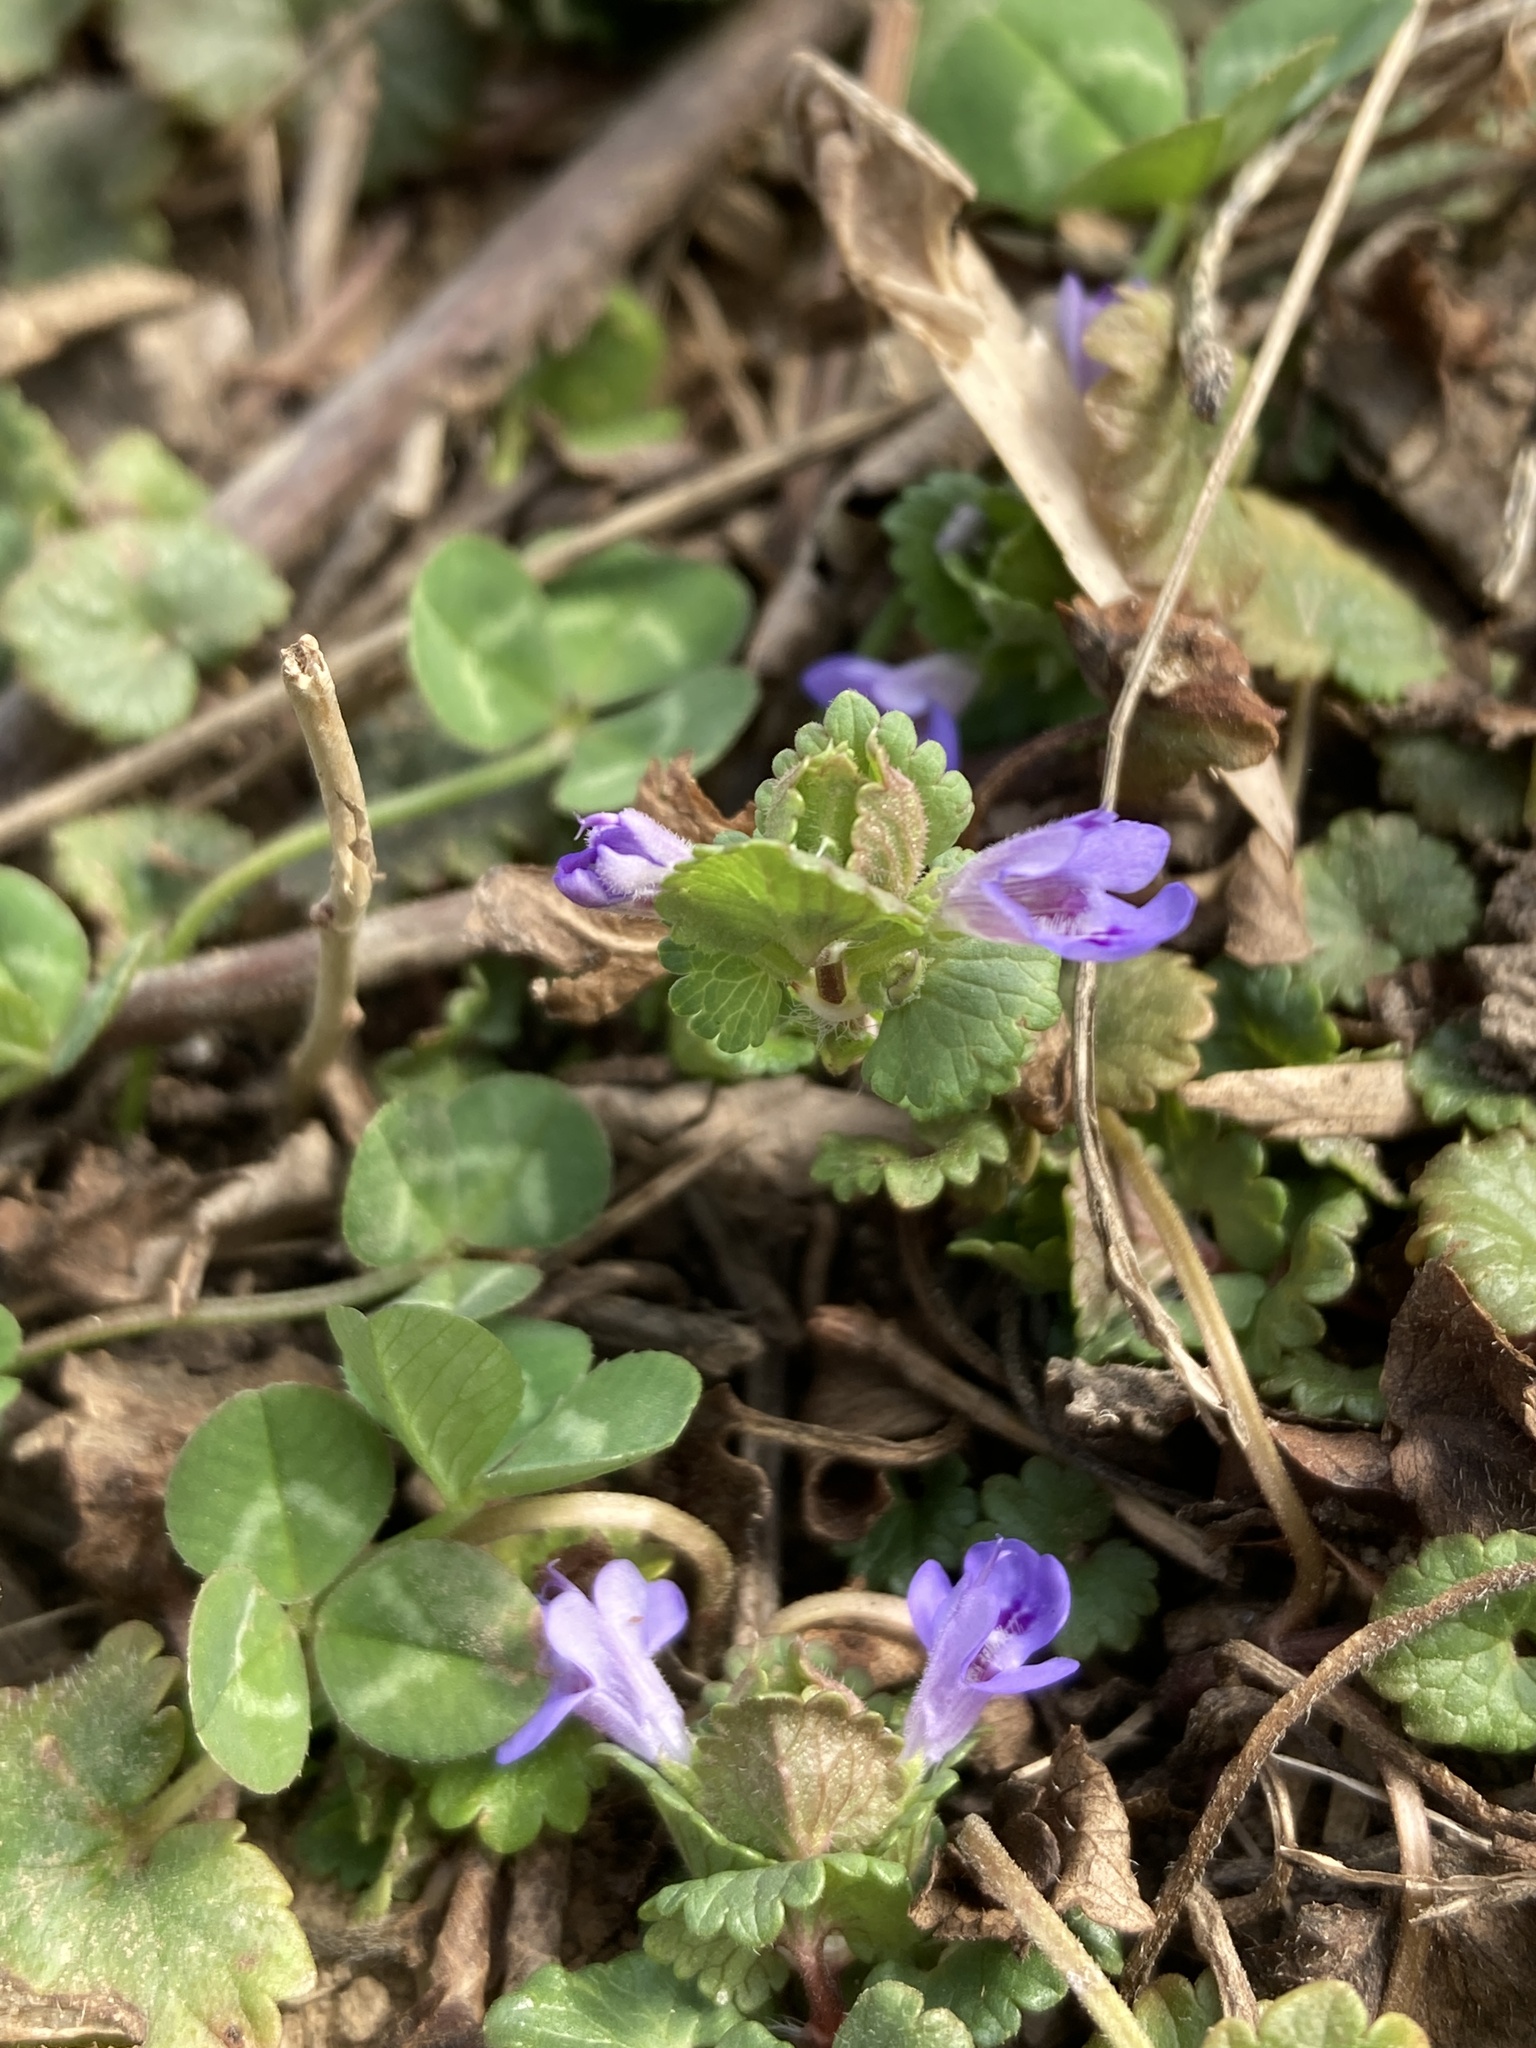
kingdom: Plantae
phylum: Tracheophyta
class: Magnoliopsida
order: Lamiales
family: Lamiaceae
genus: Glechoma
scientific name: Glechoma hederacea
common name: Ground ivy
